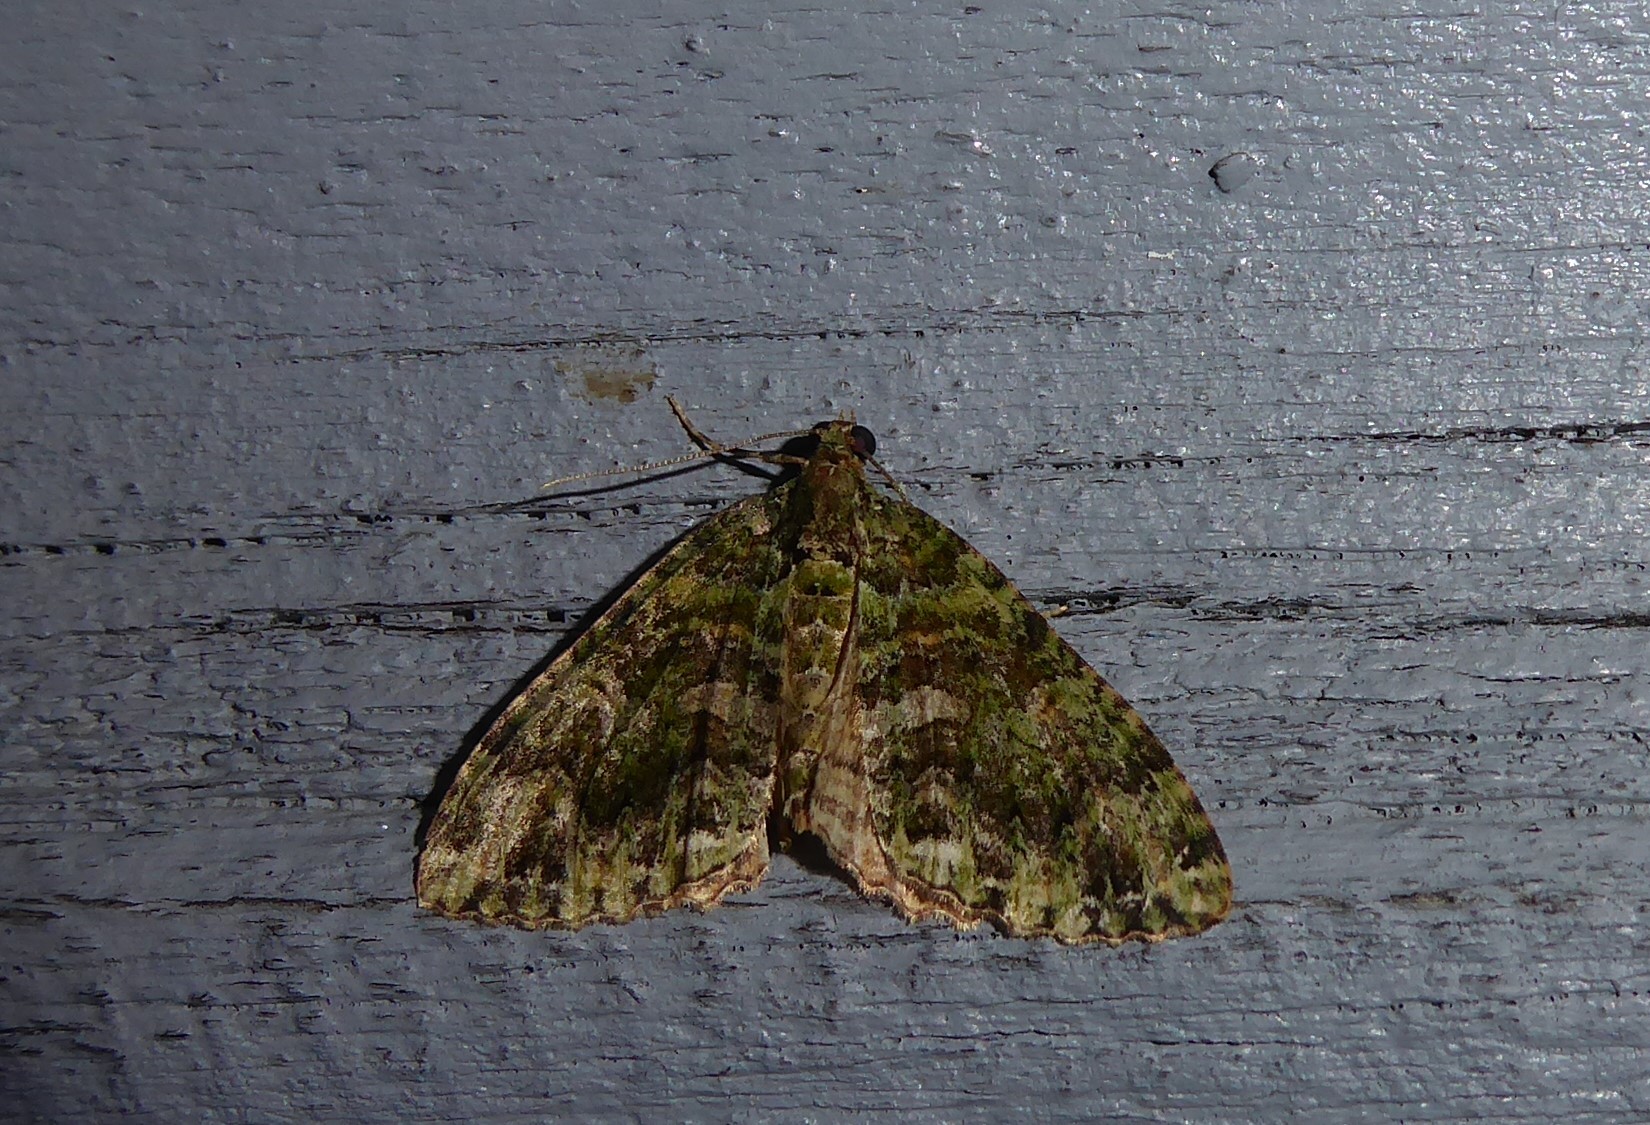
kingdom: Animalia
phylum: Arthropoda
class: Insecta
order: Lepidoptera
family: Geometridae
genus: Austrocidaria
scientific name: Austrocidaria similata
